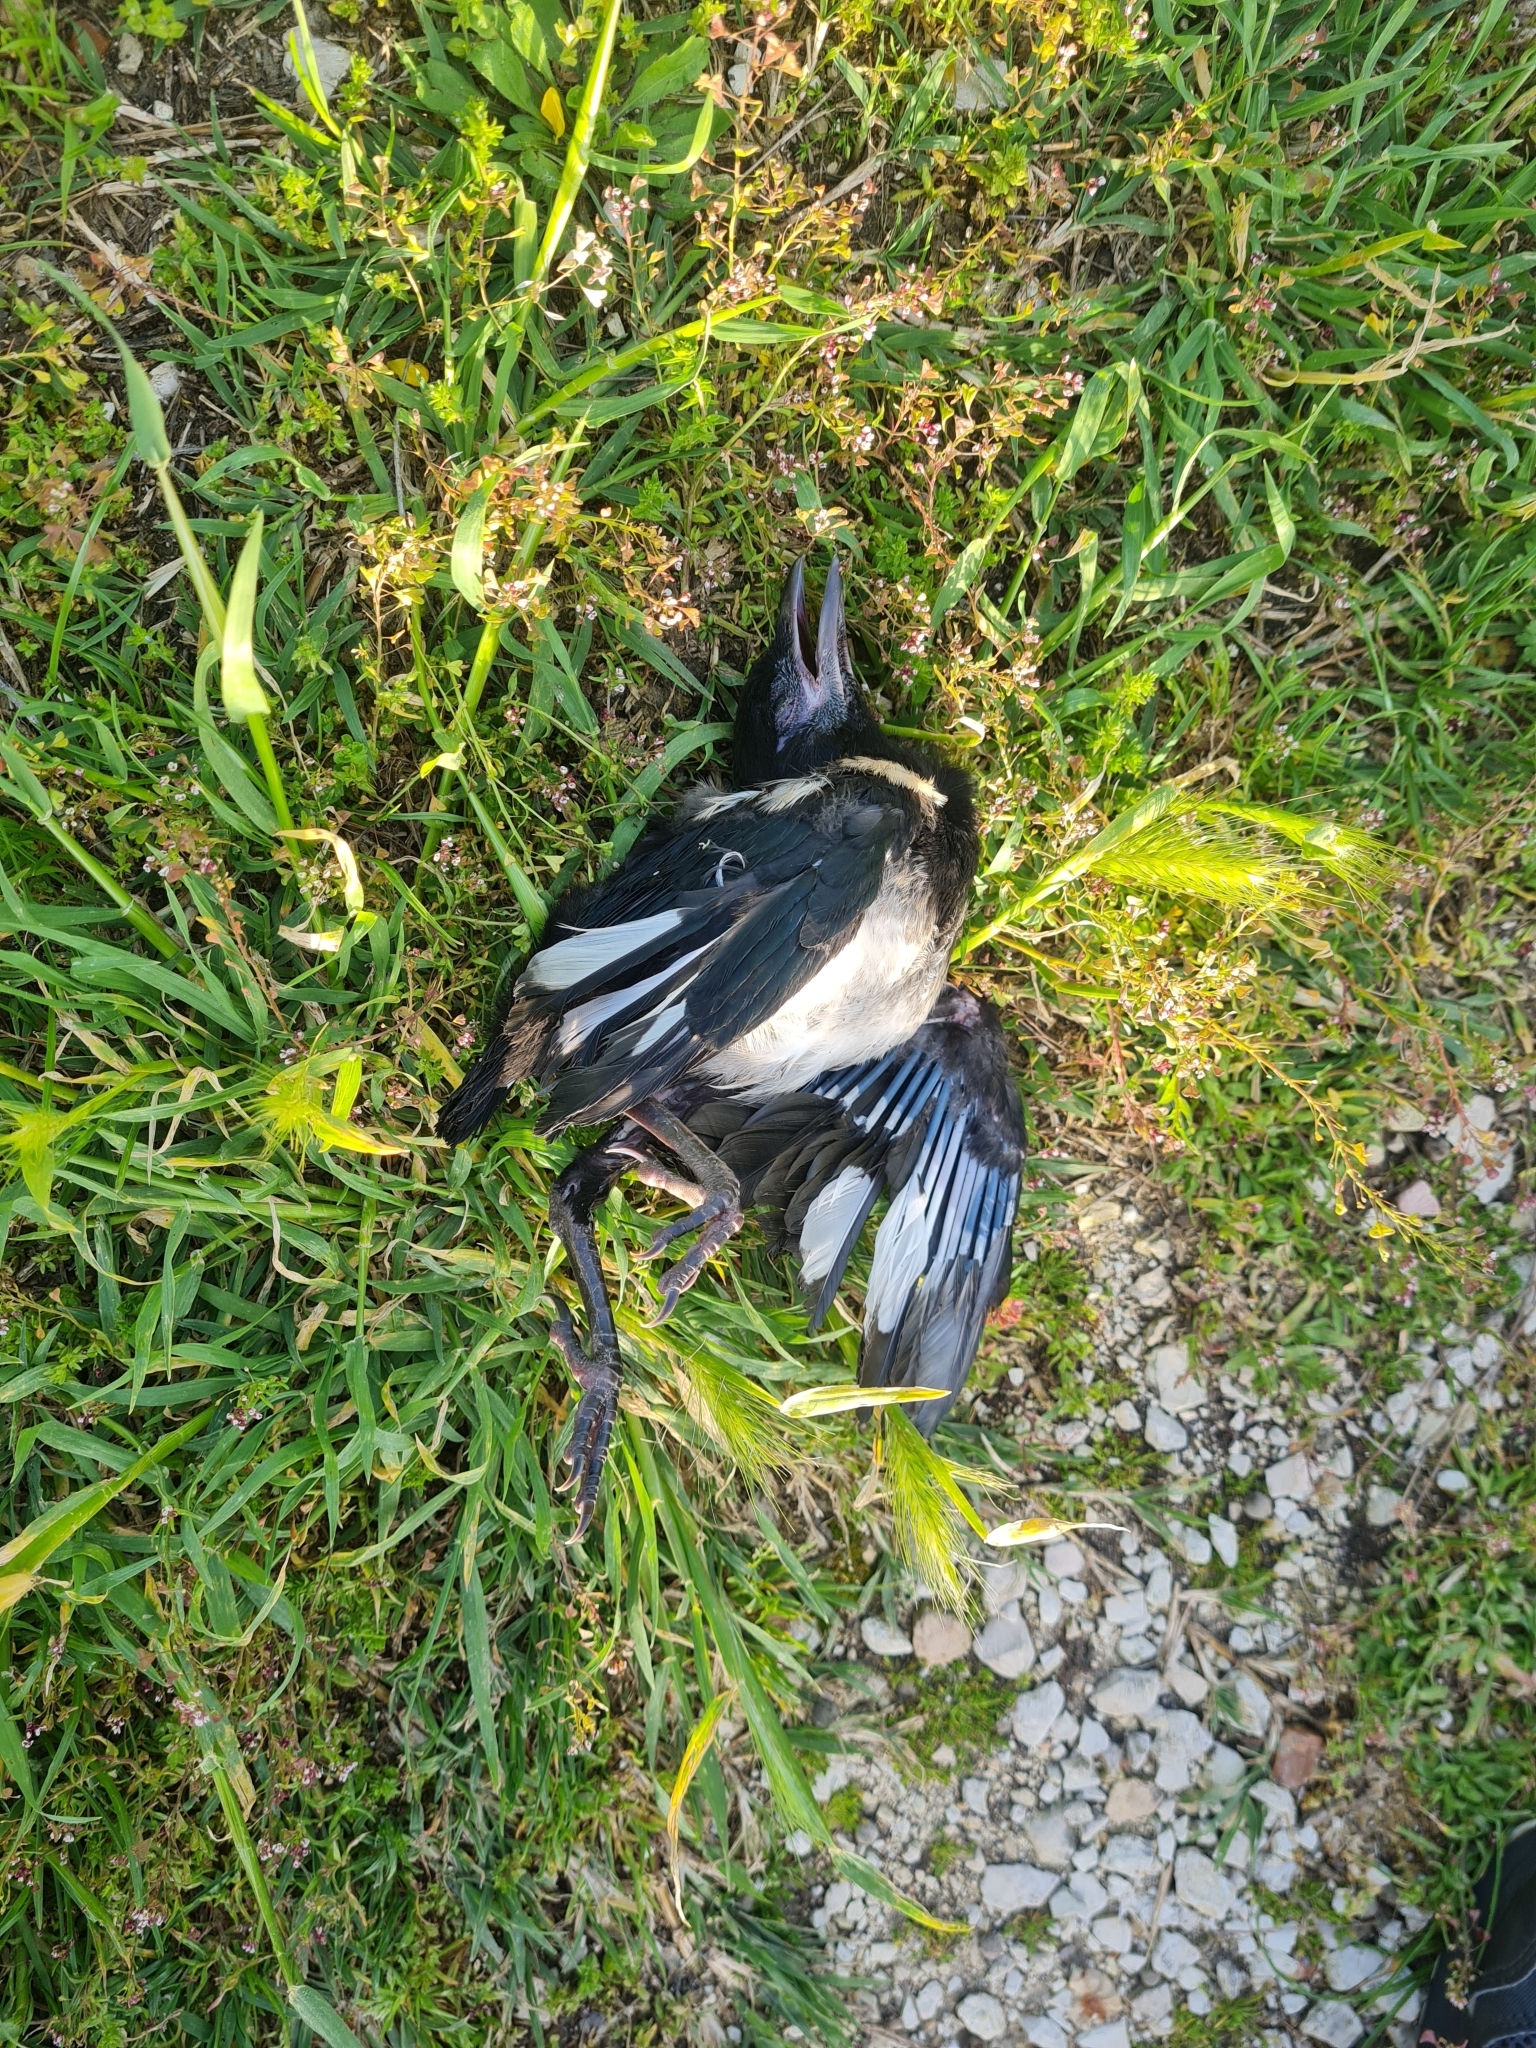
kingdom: Animalia
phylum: Chordata
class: Aves
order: Passeriformes
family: Corvidae
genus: Pica
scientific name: Pica pica
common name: Eurasian magpie
